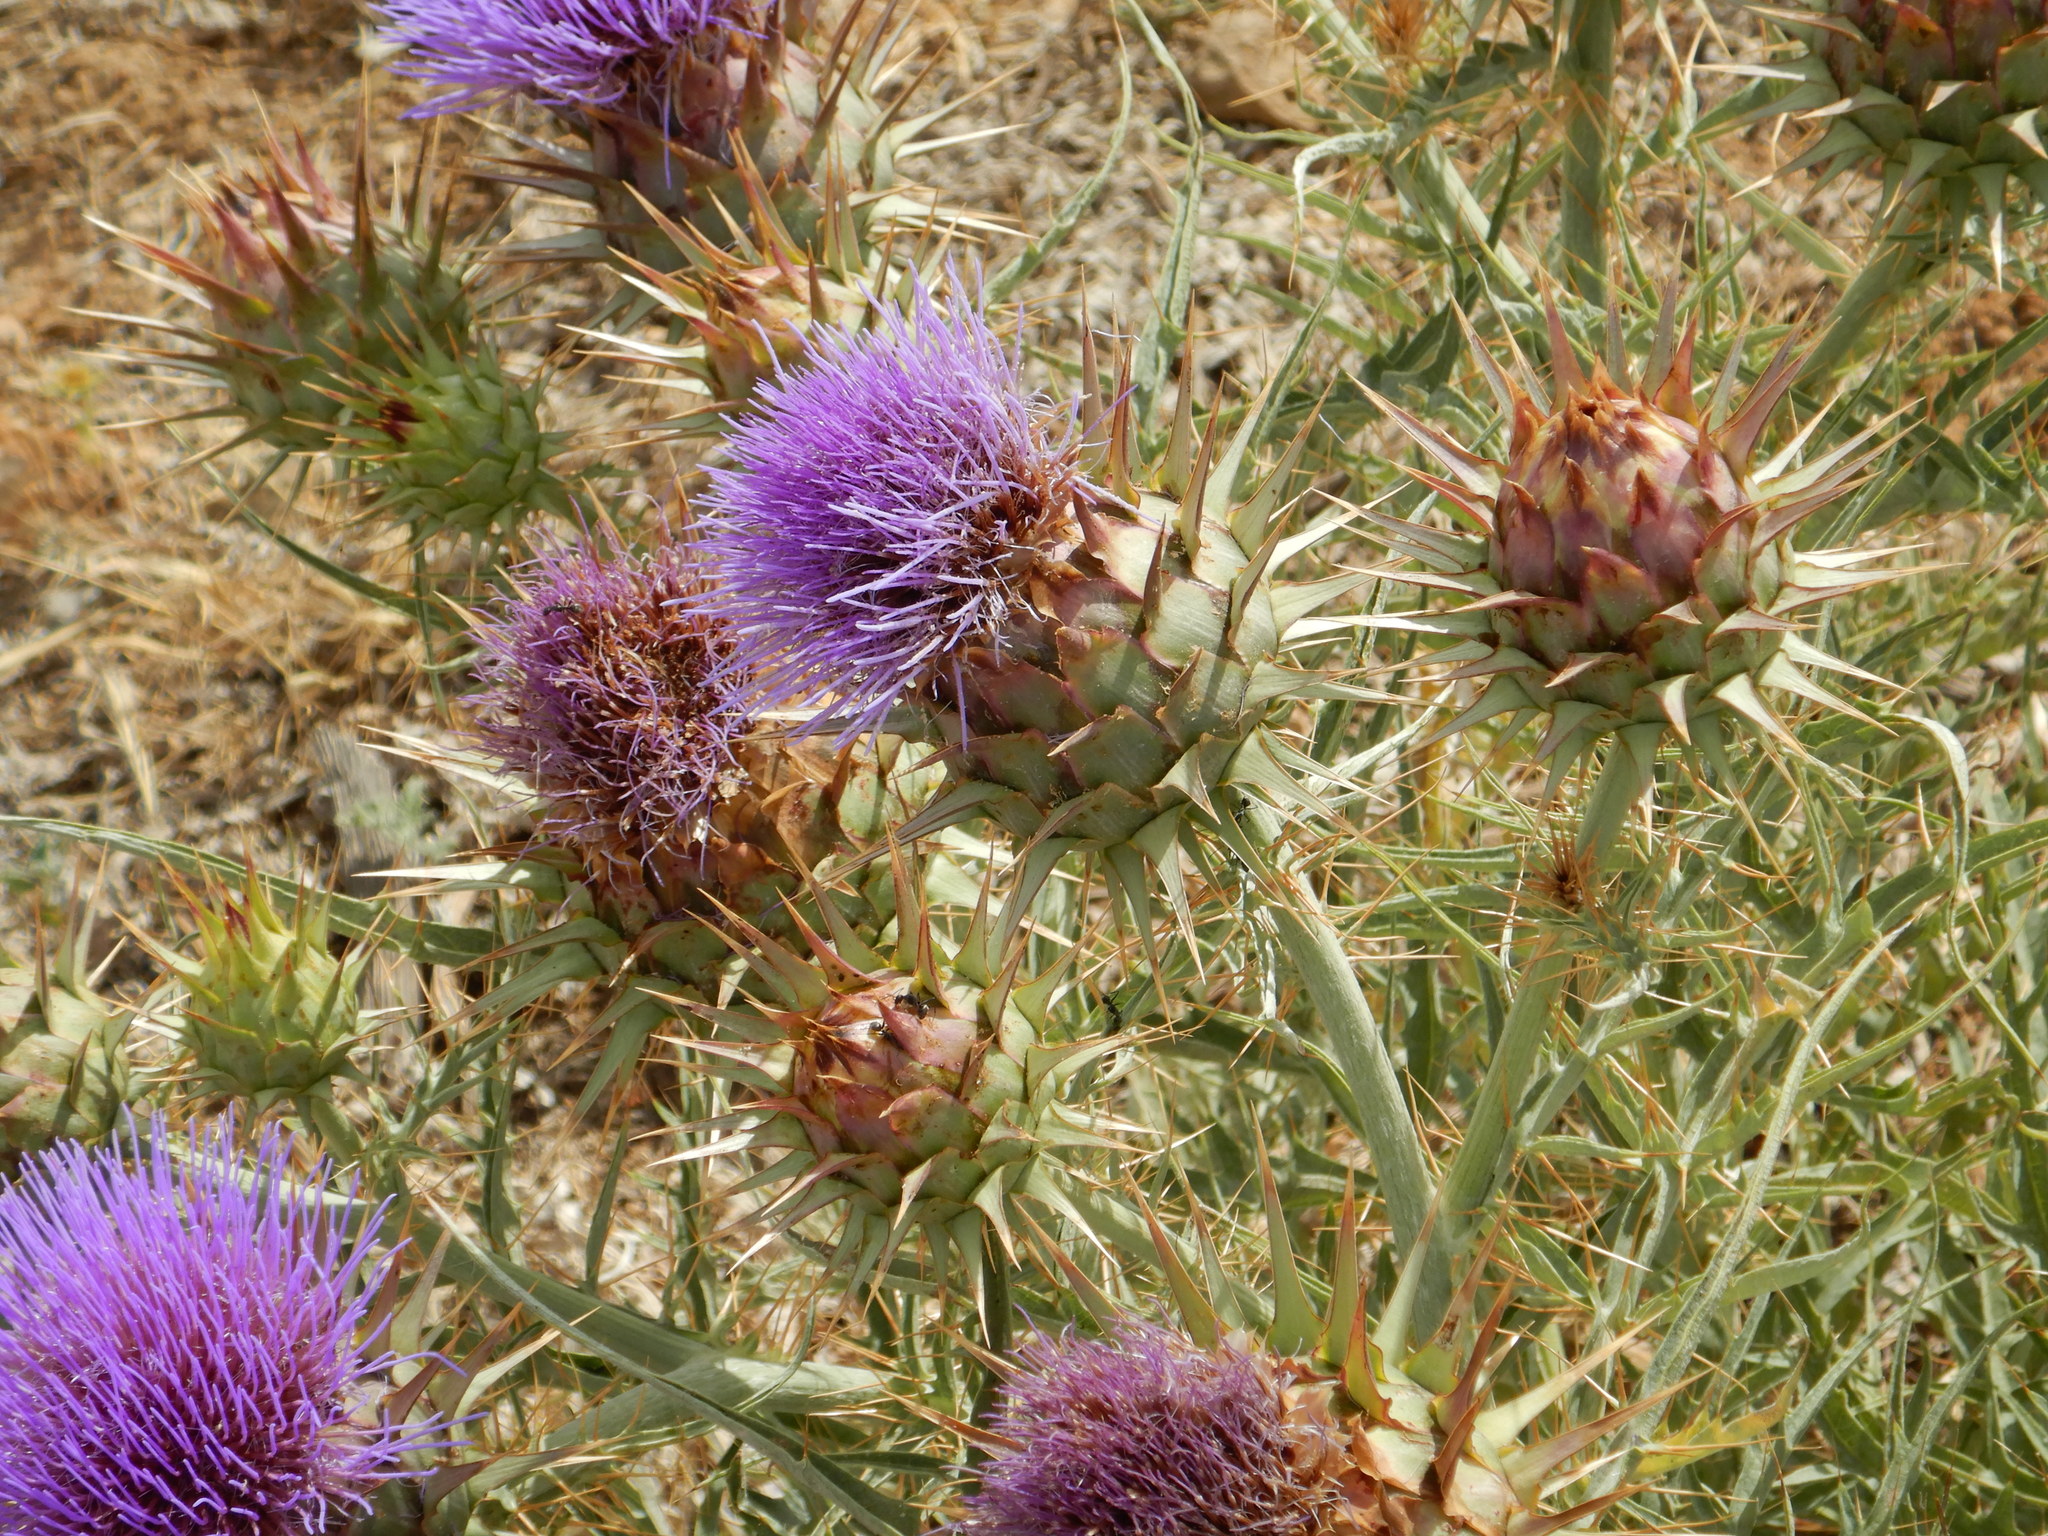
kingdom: Plantae
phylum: Tracheophyta
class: Magnoliopsida
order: Asterales
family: Asteraceae
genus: Cynara
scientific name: Cynara cardunculus
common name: Globe artichoke
